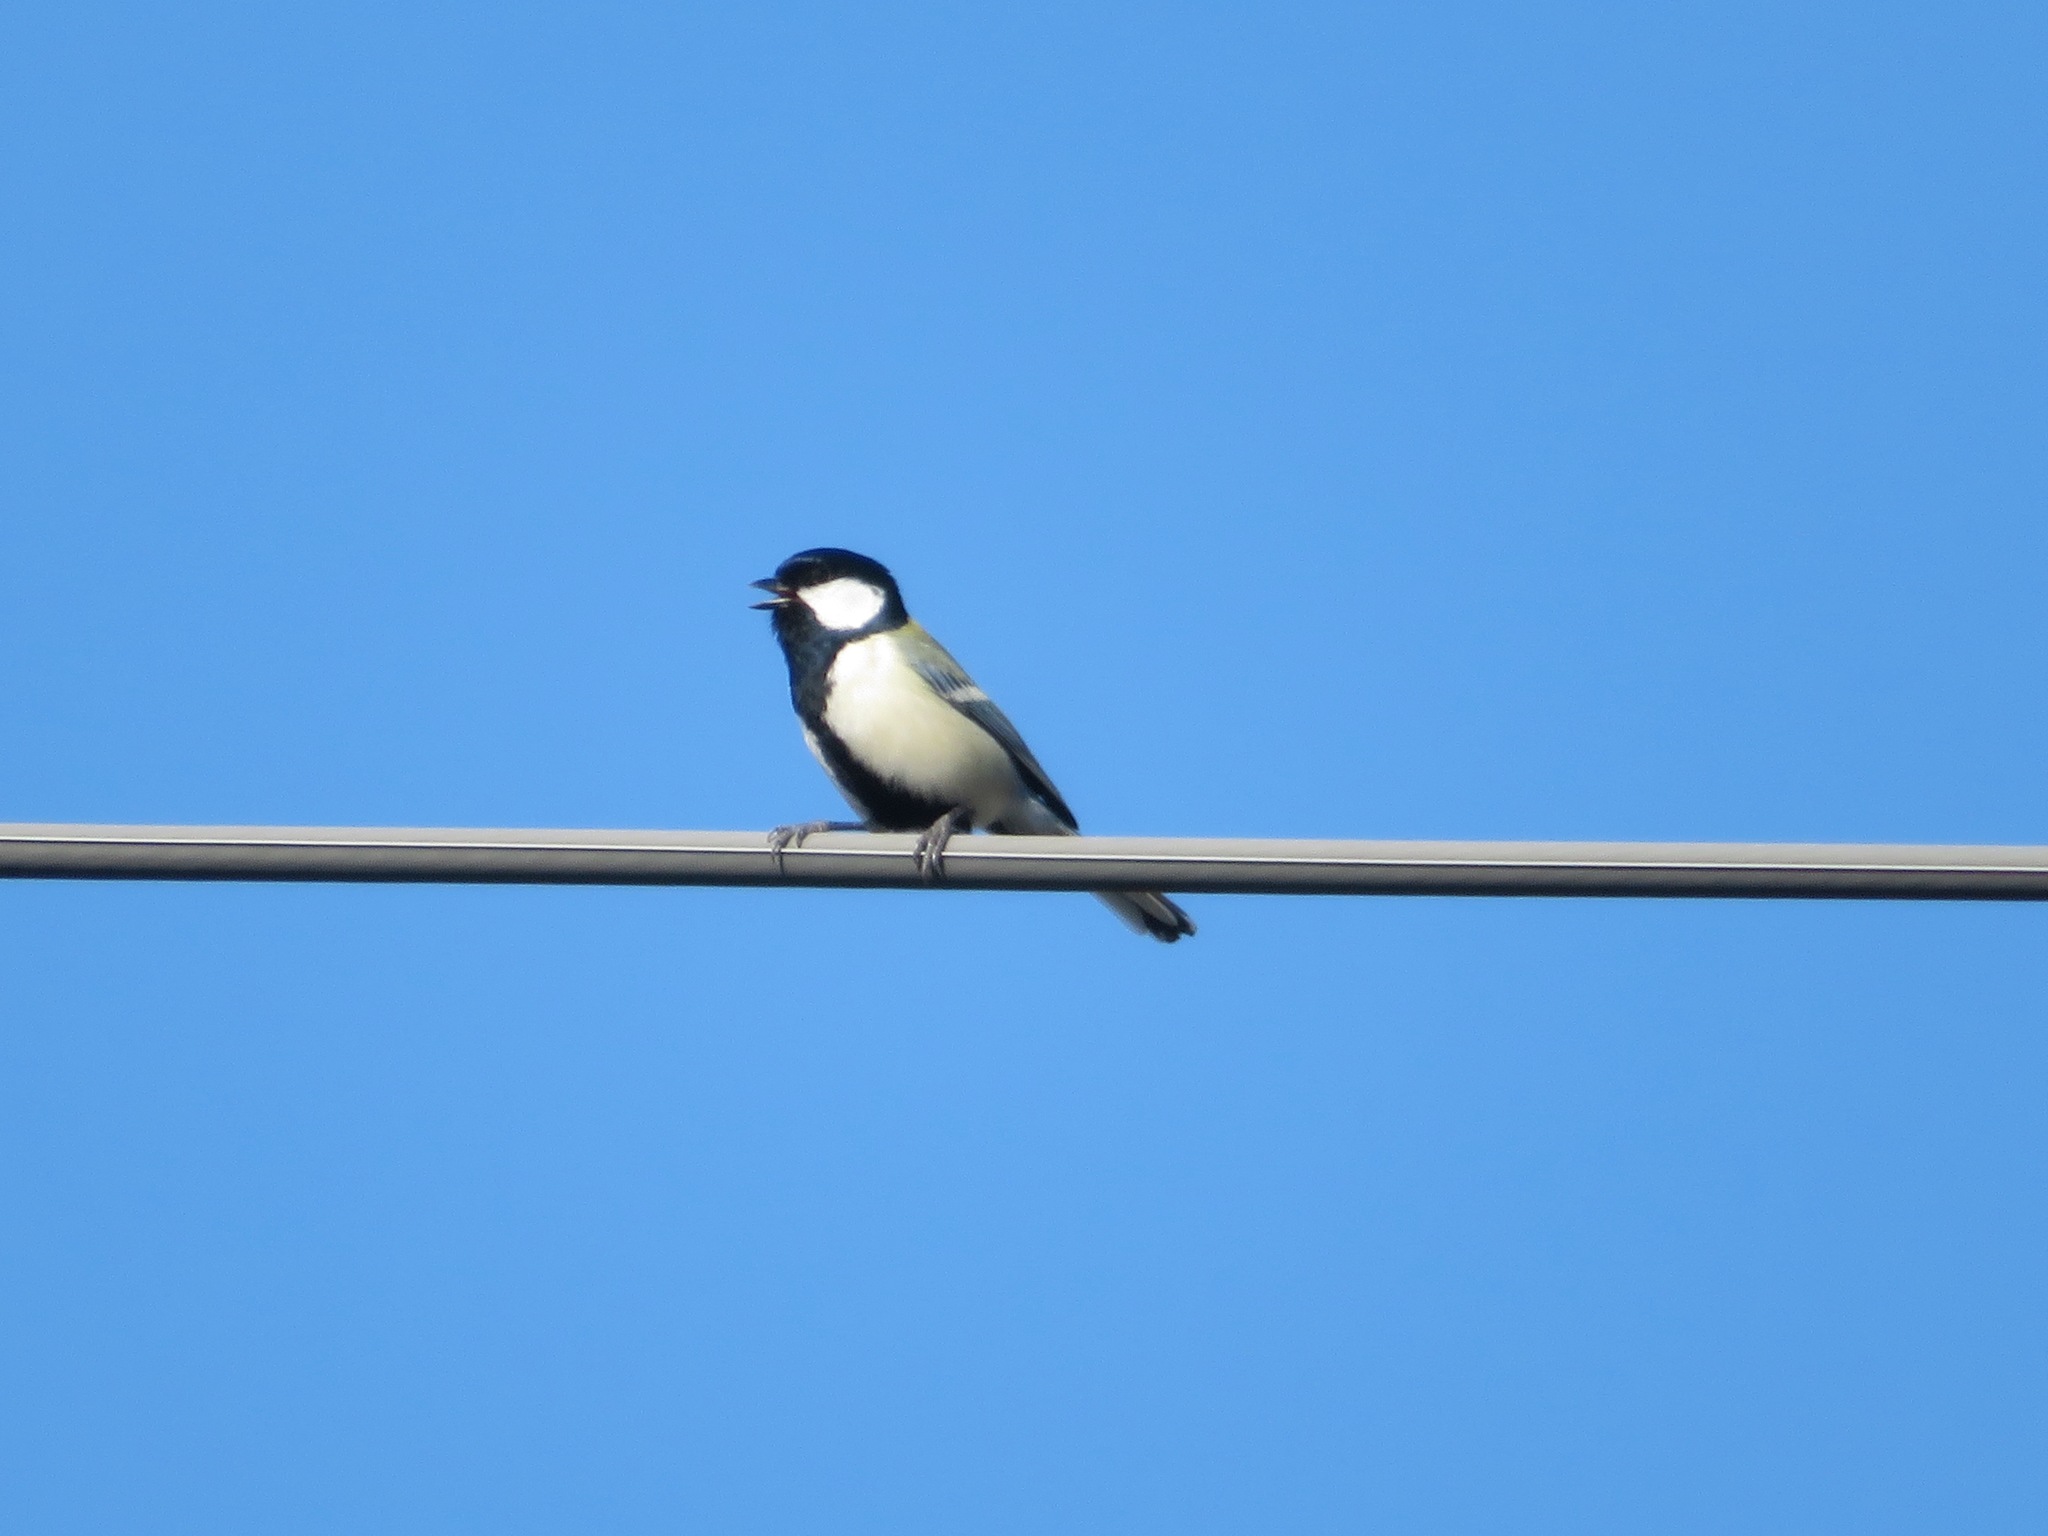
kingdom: Animalia
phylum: Chordata
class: Aves
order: Passeriformes
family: Paridae
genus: Parus
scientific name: Parus minor
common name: Japanese tit
